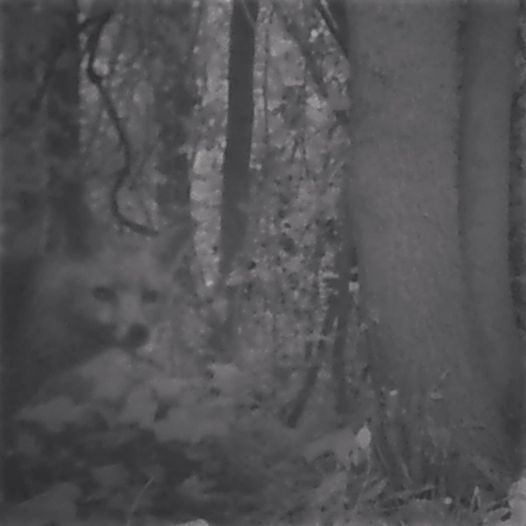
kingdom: Animalia
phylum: Chordata
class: Mammalia
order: Carnivora
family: Canidae
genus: Vulpes
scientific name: Vulpes vulpes
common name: Red fox
